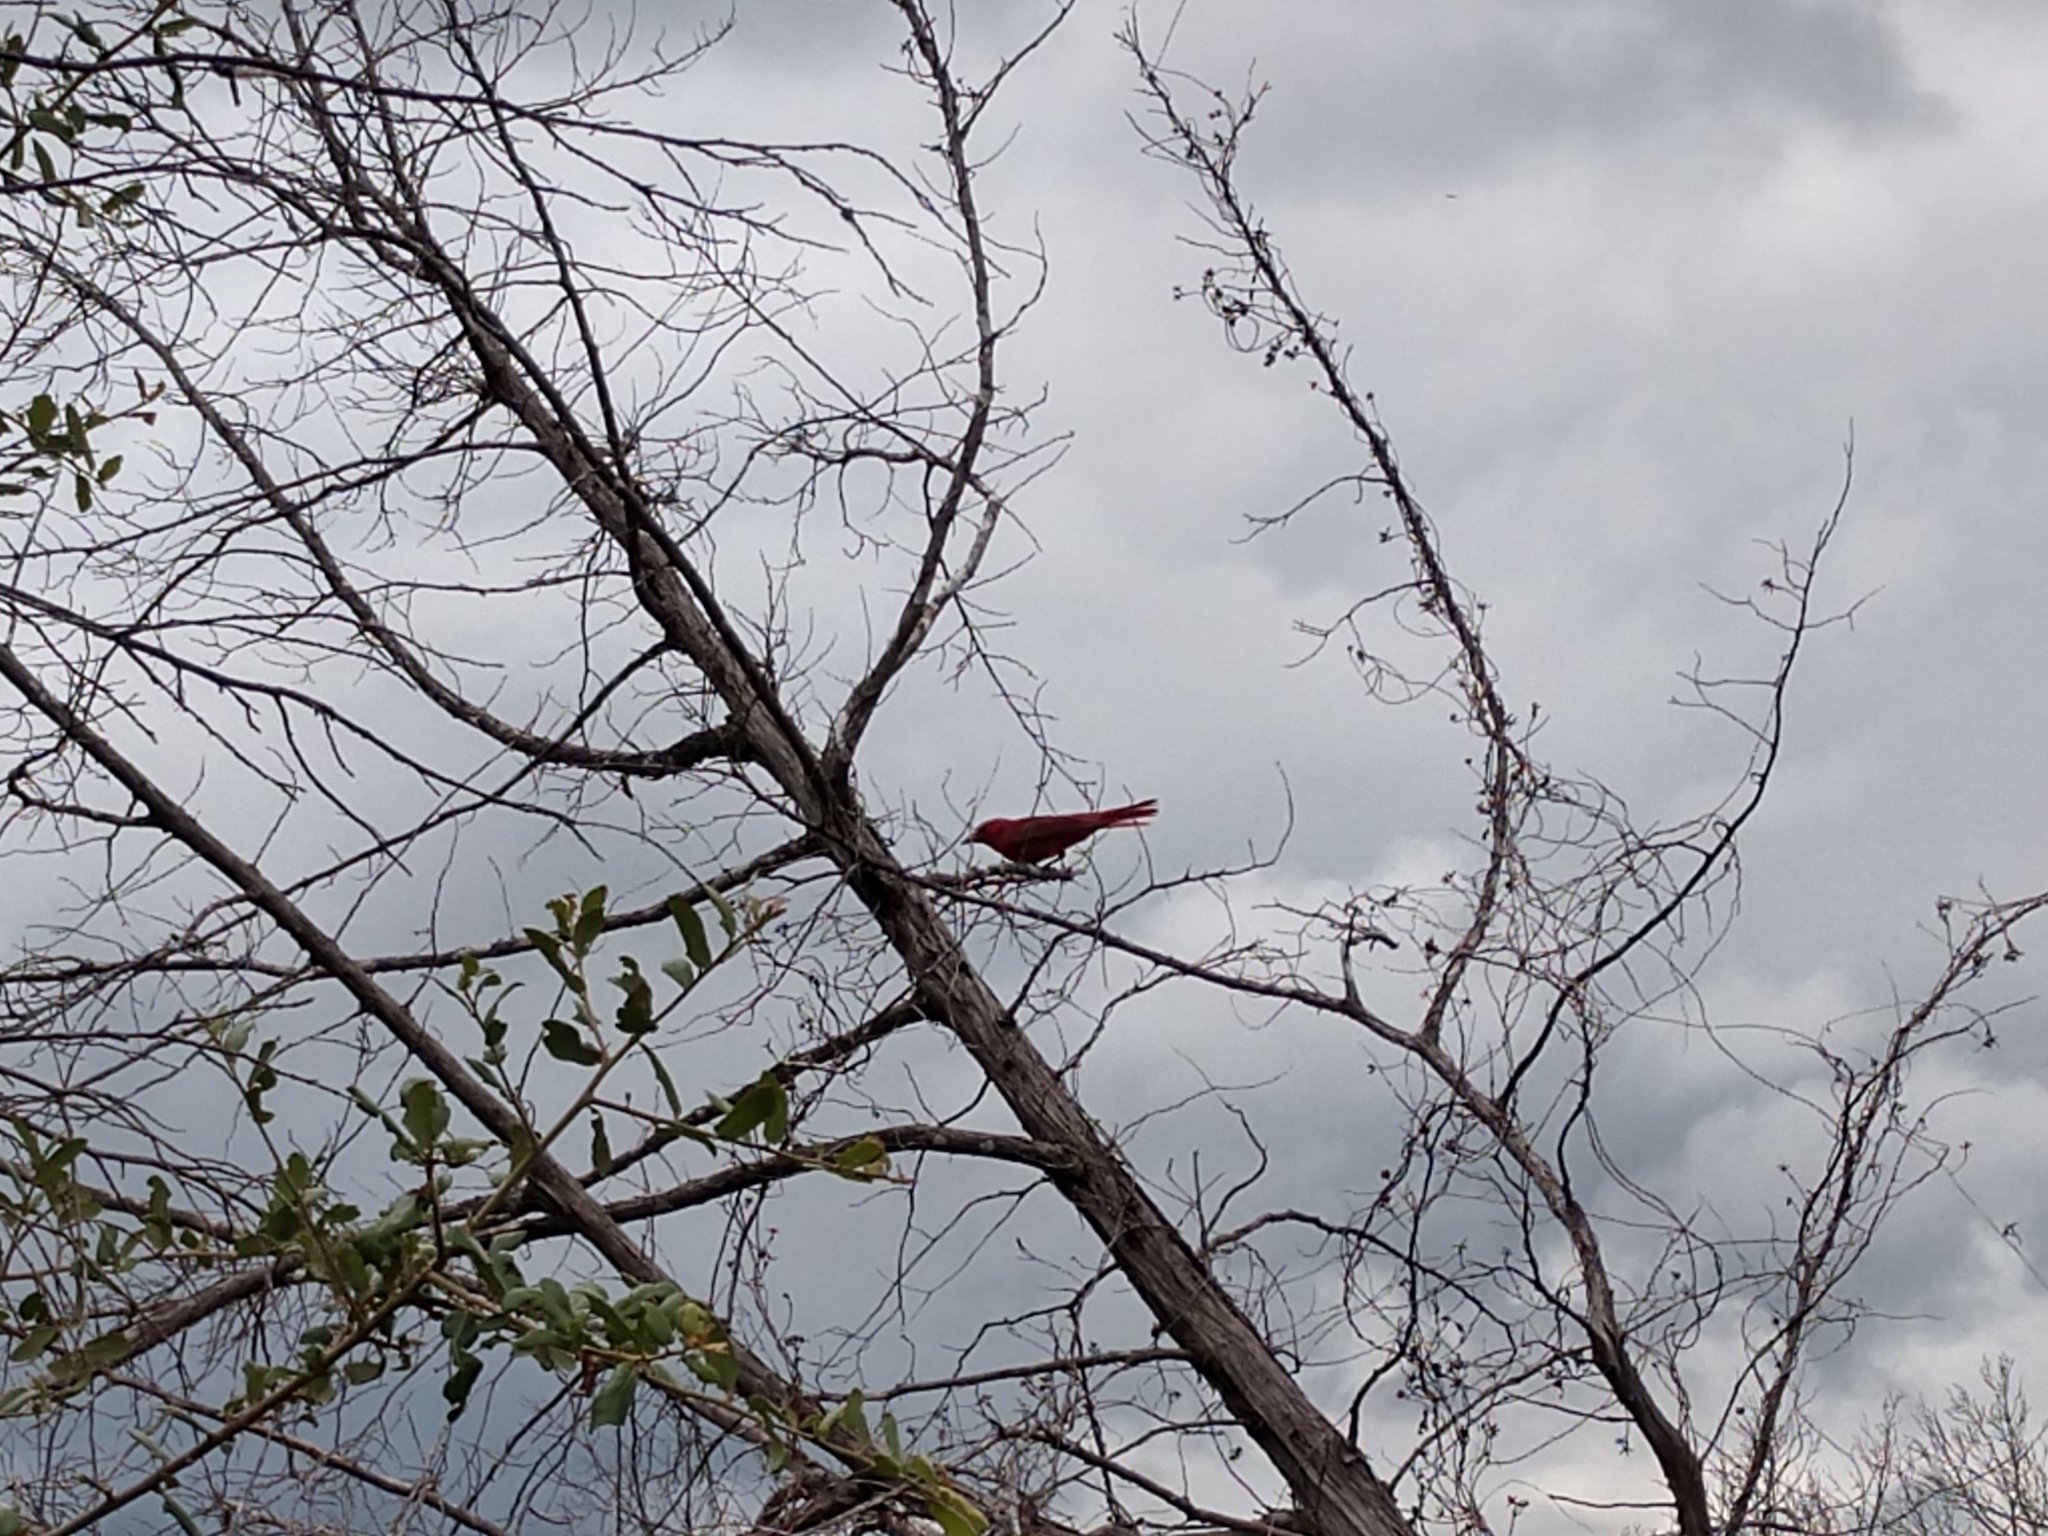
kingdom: Animalia
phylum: Chordata
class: Aves
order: Passeriformes
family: Cardinalidae
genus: Piranga
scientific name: Piranga rubra
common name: Summer tanager
